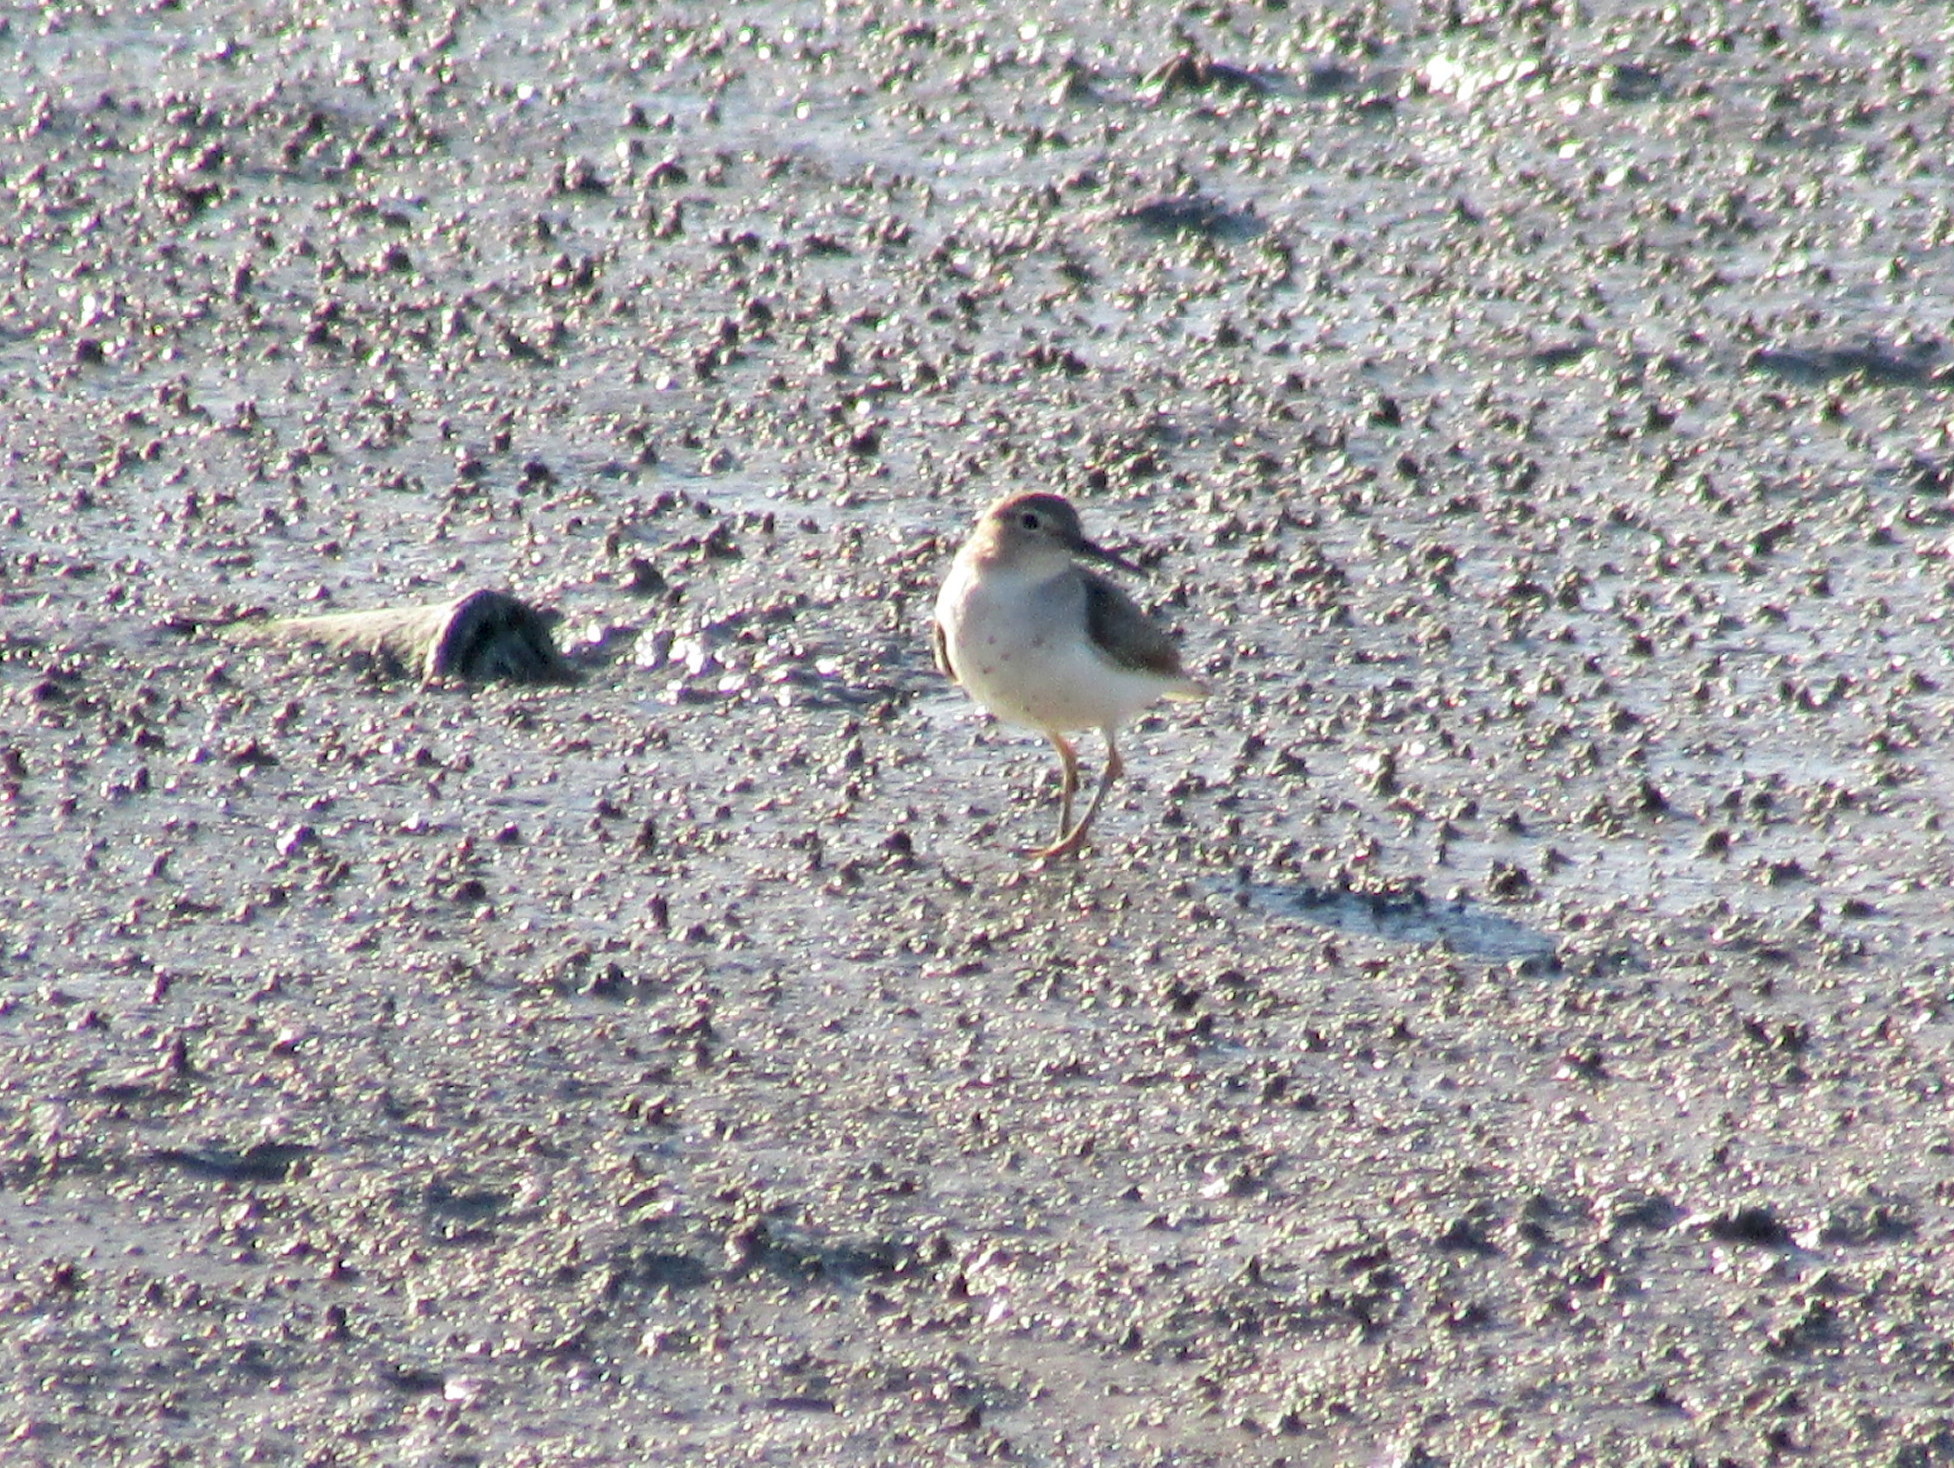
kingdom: Animalia
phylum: Chordata
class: Aves
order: Charadriiformes
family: Scolopacidae
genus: Actitis
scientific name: Actitis macularius
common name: Spotted sandpiper
